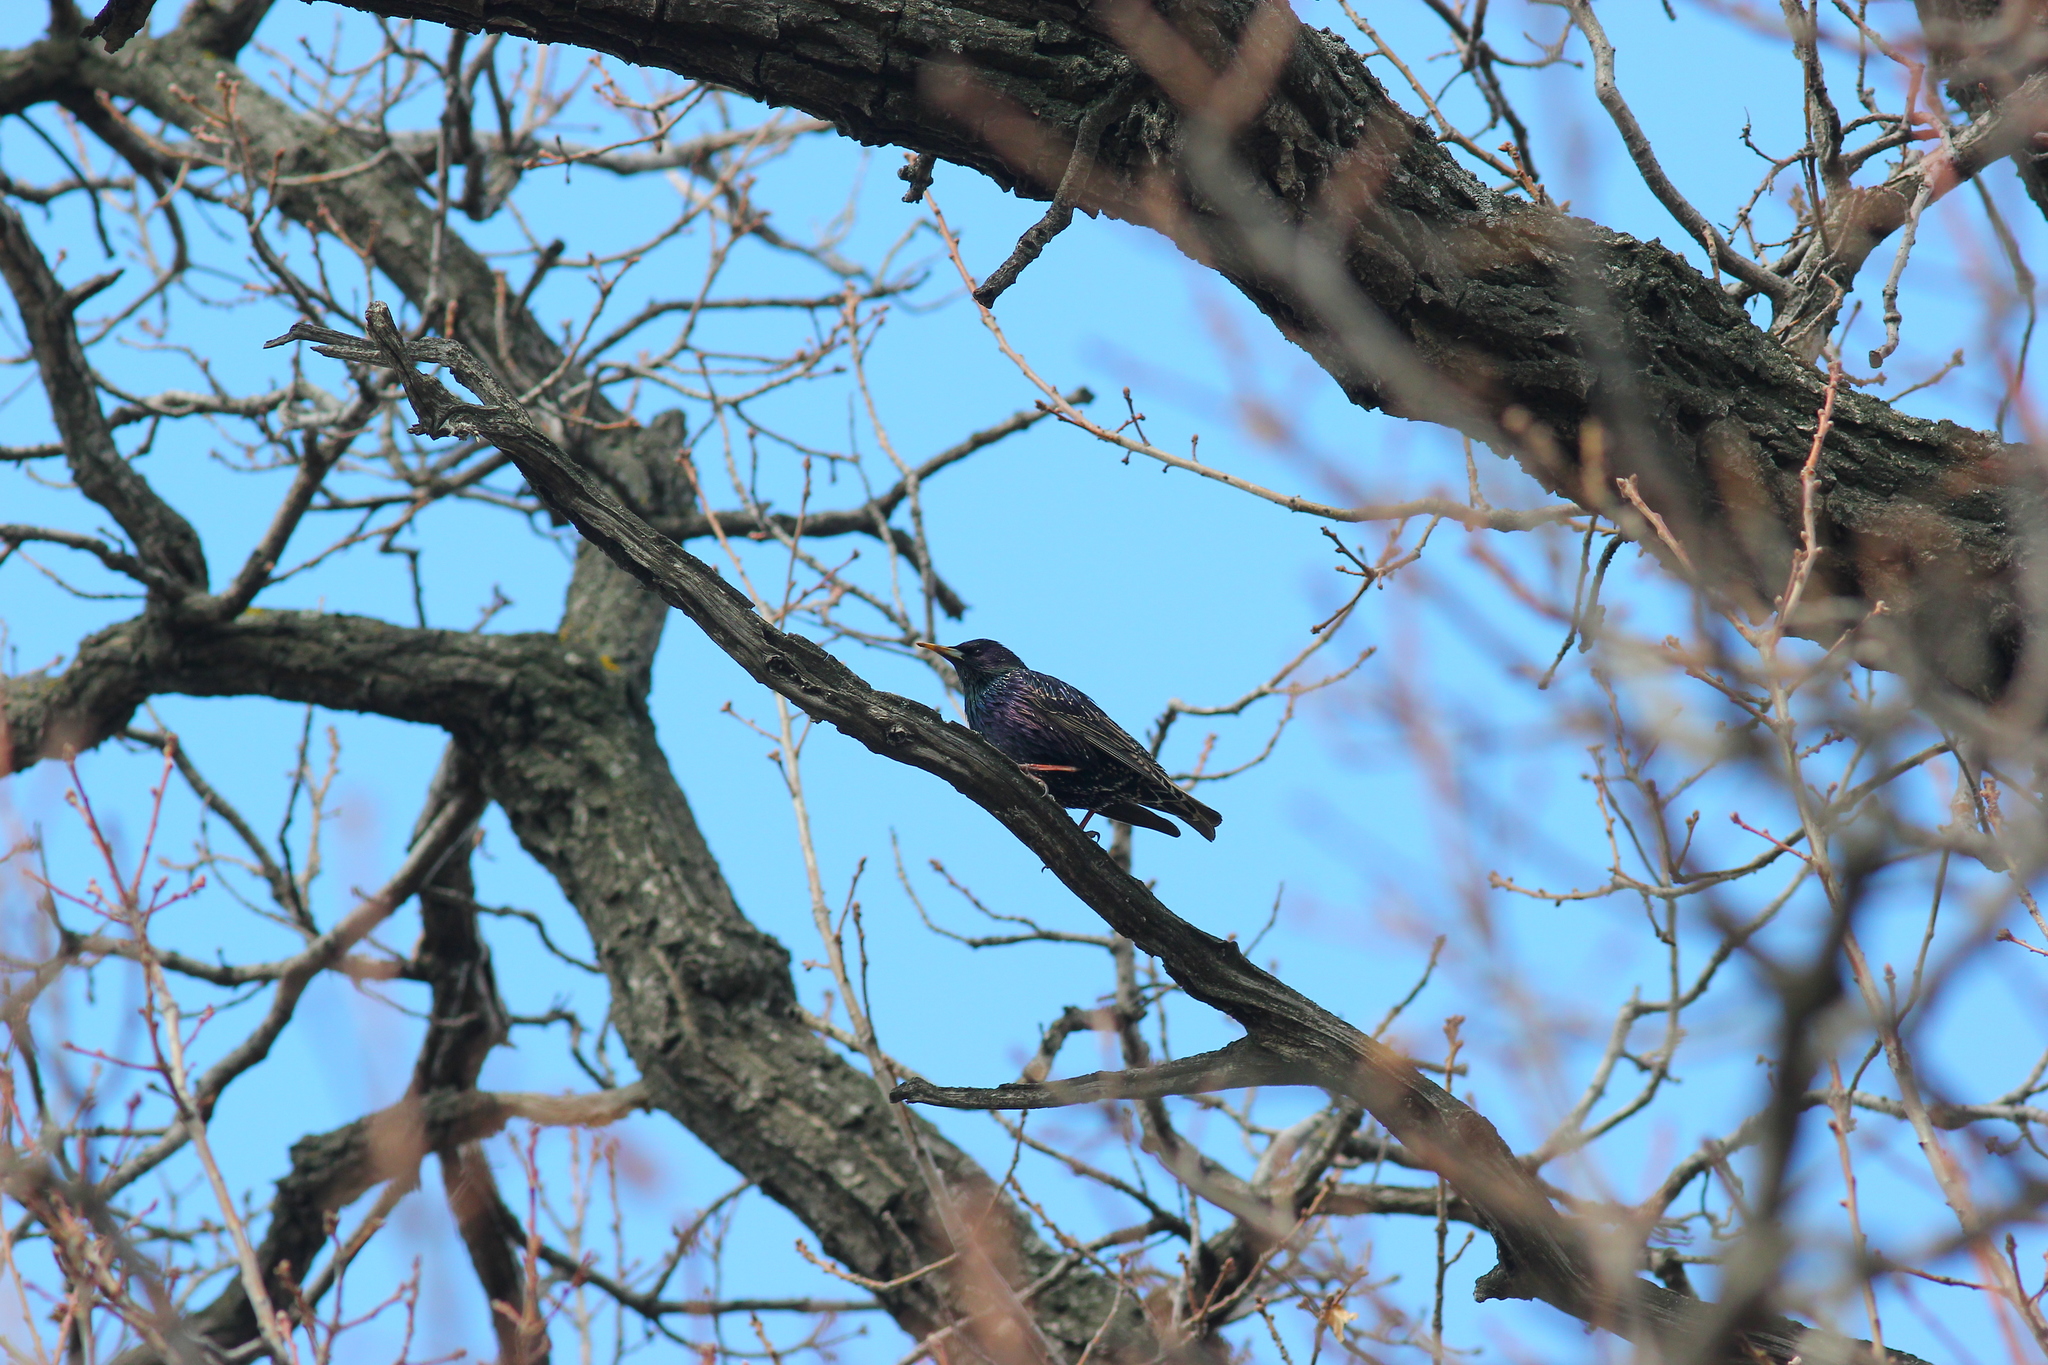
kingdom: Animalia
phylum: Chordata
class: Aves
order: Passeriformes
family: Sturnidae
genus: Sturnus
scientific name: Sturnus vulgaris
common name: Common starling
